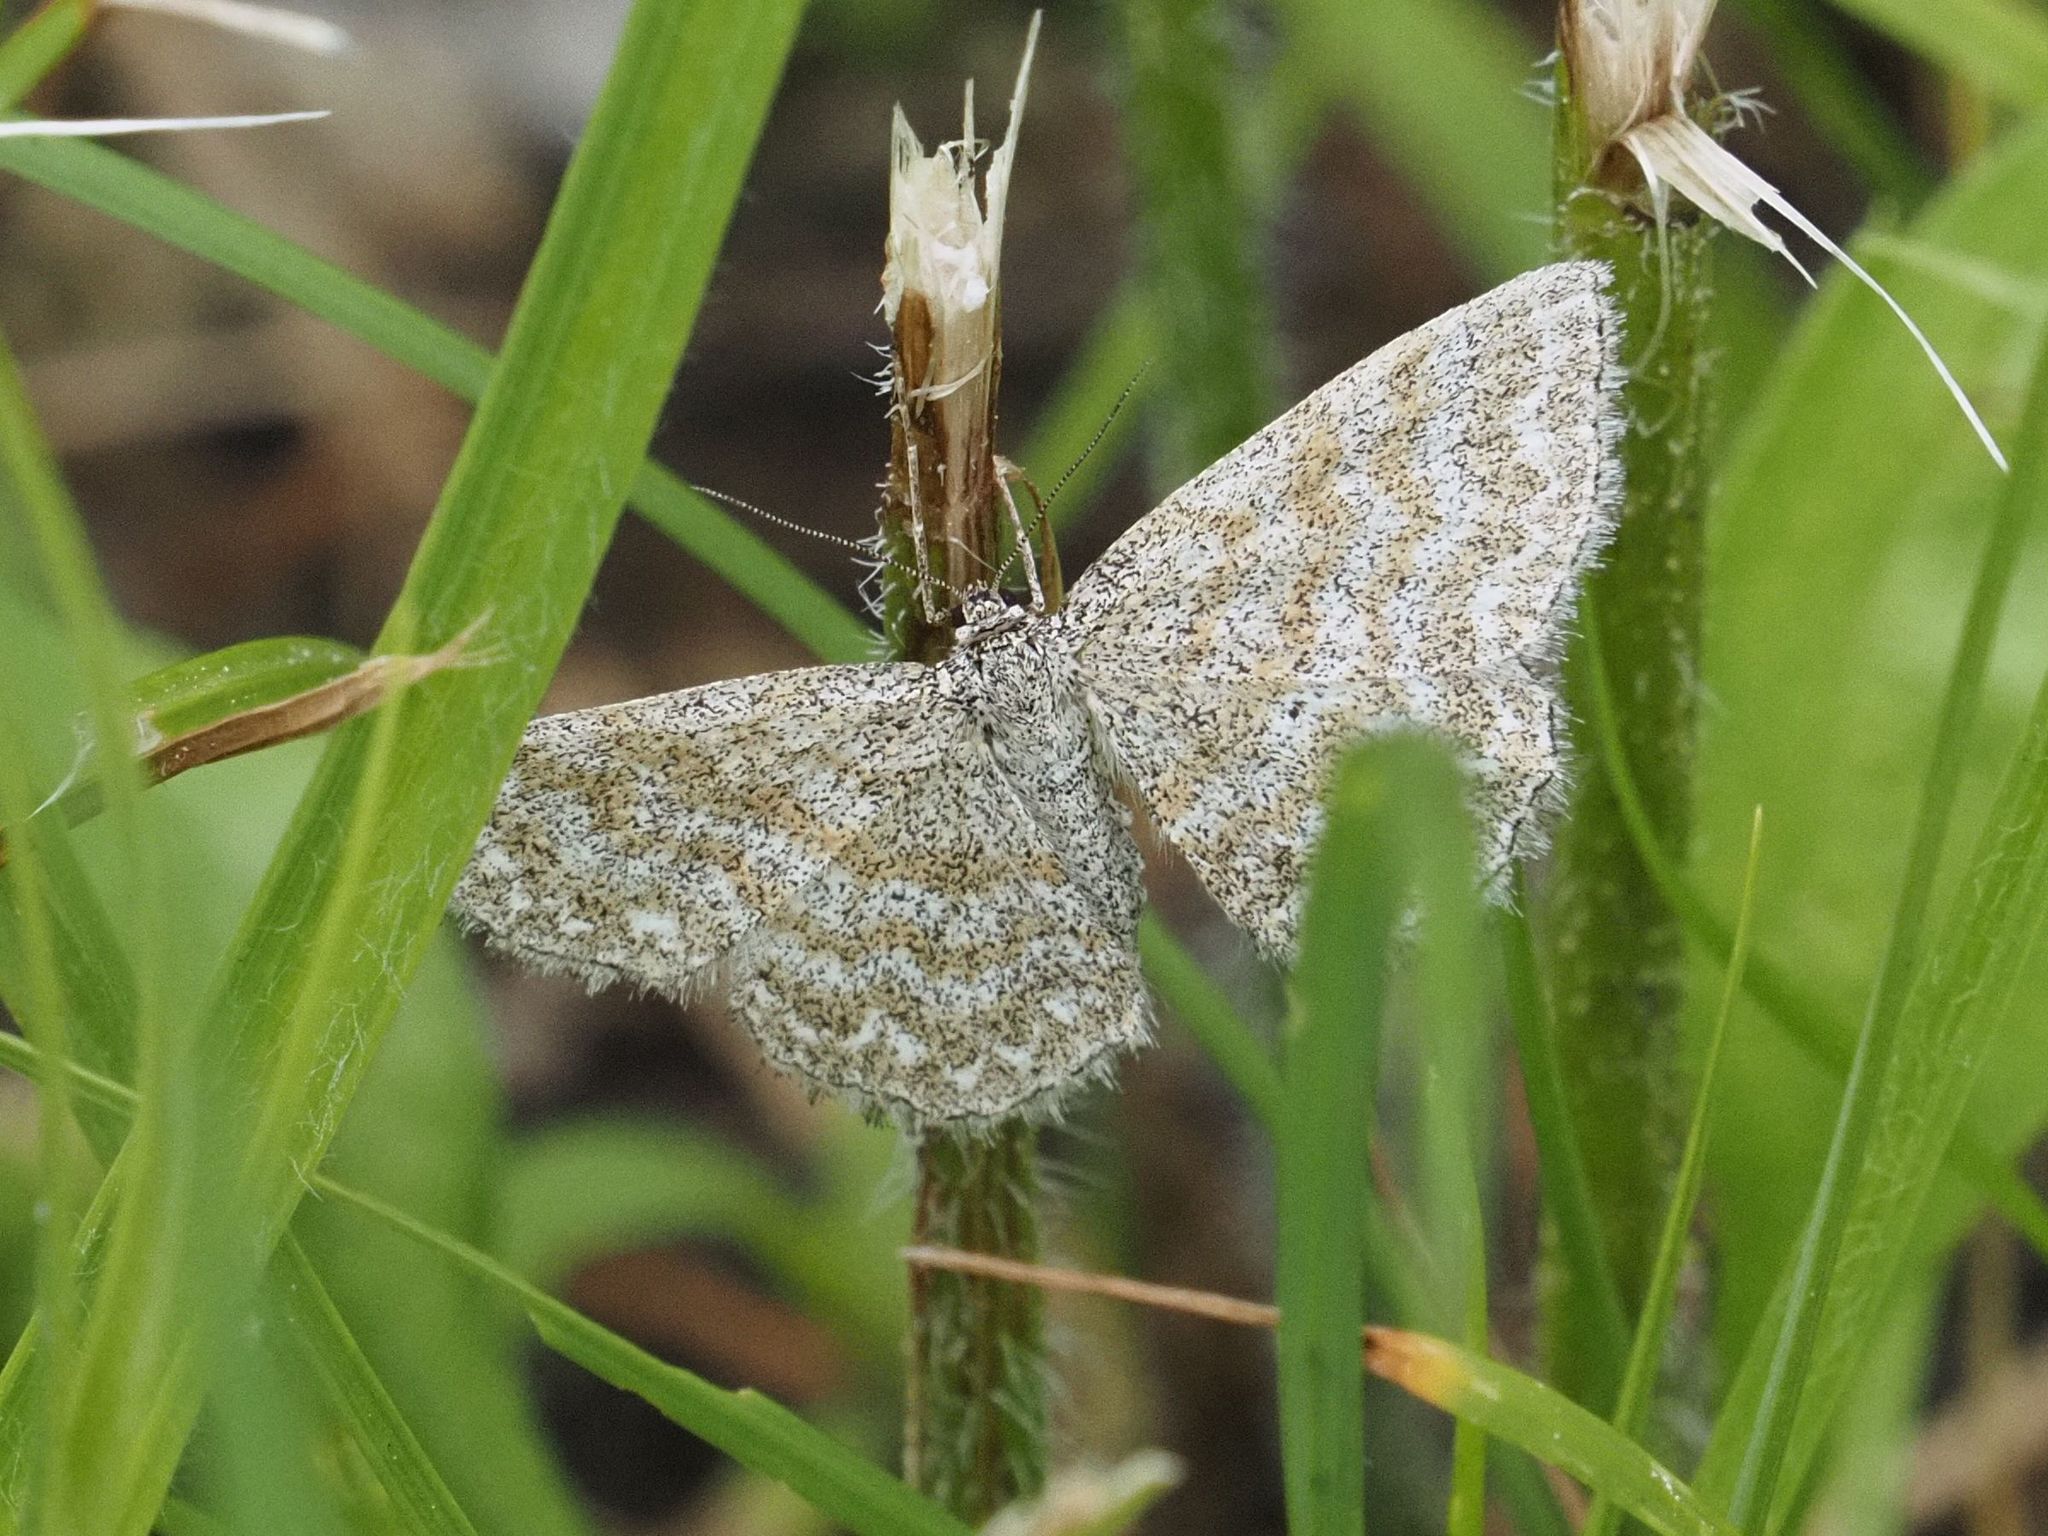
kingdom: Animalia
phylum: Arthropoda
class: Insecta
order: Lepidoptera
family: Geometridae
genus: Scopula
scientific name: Scopula immorata
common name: Lewes wave
